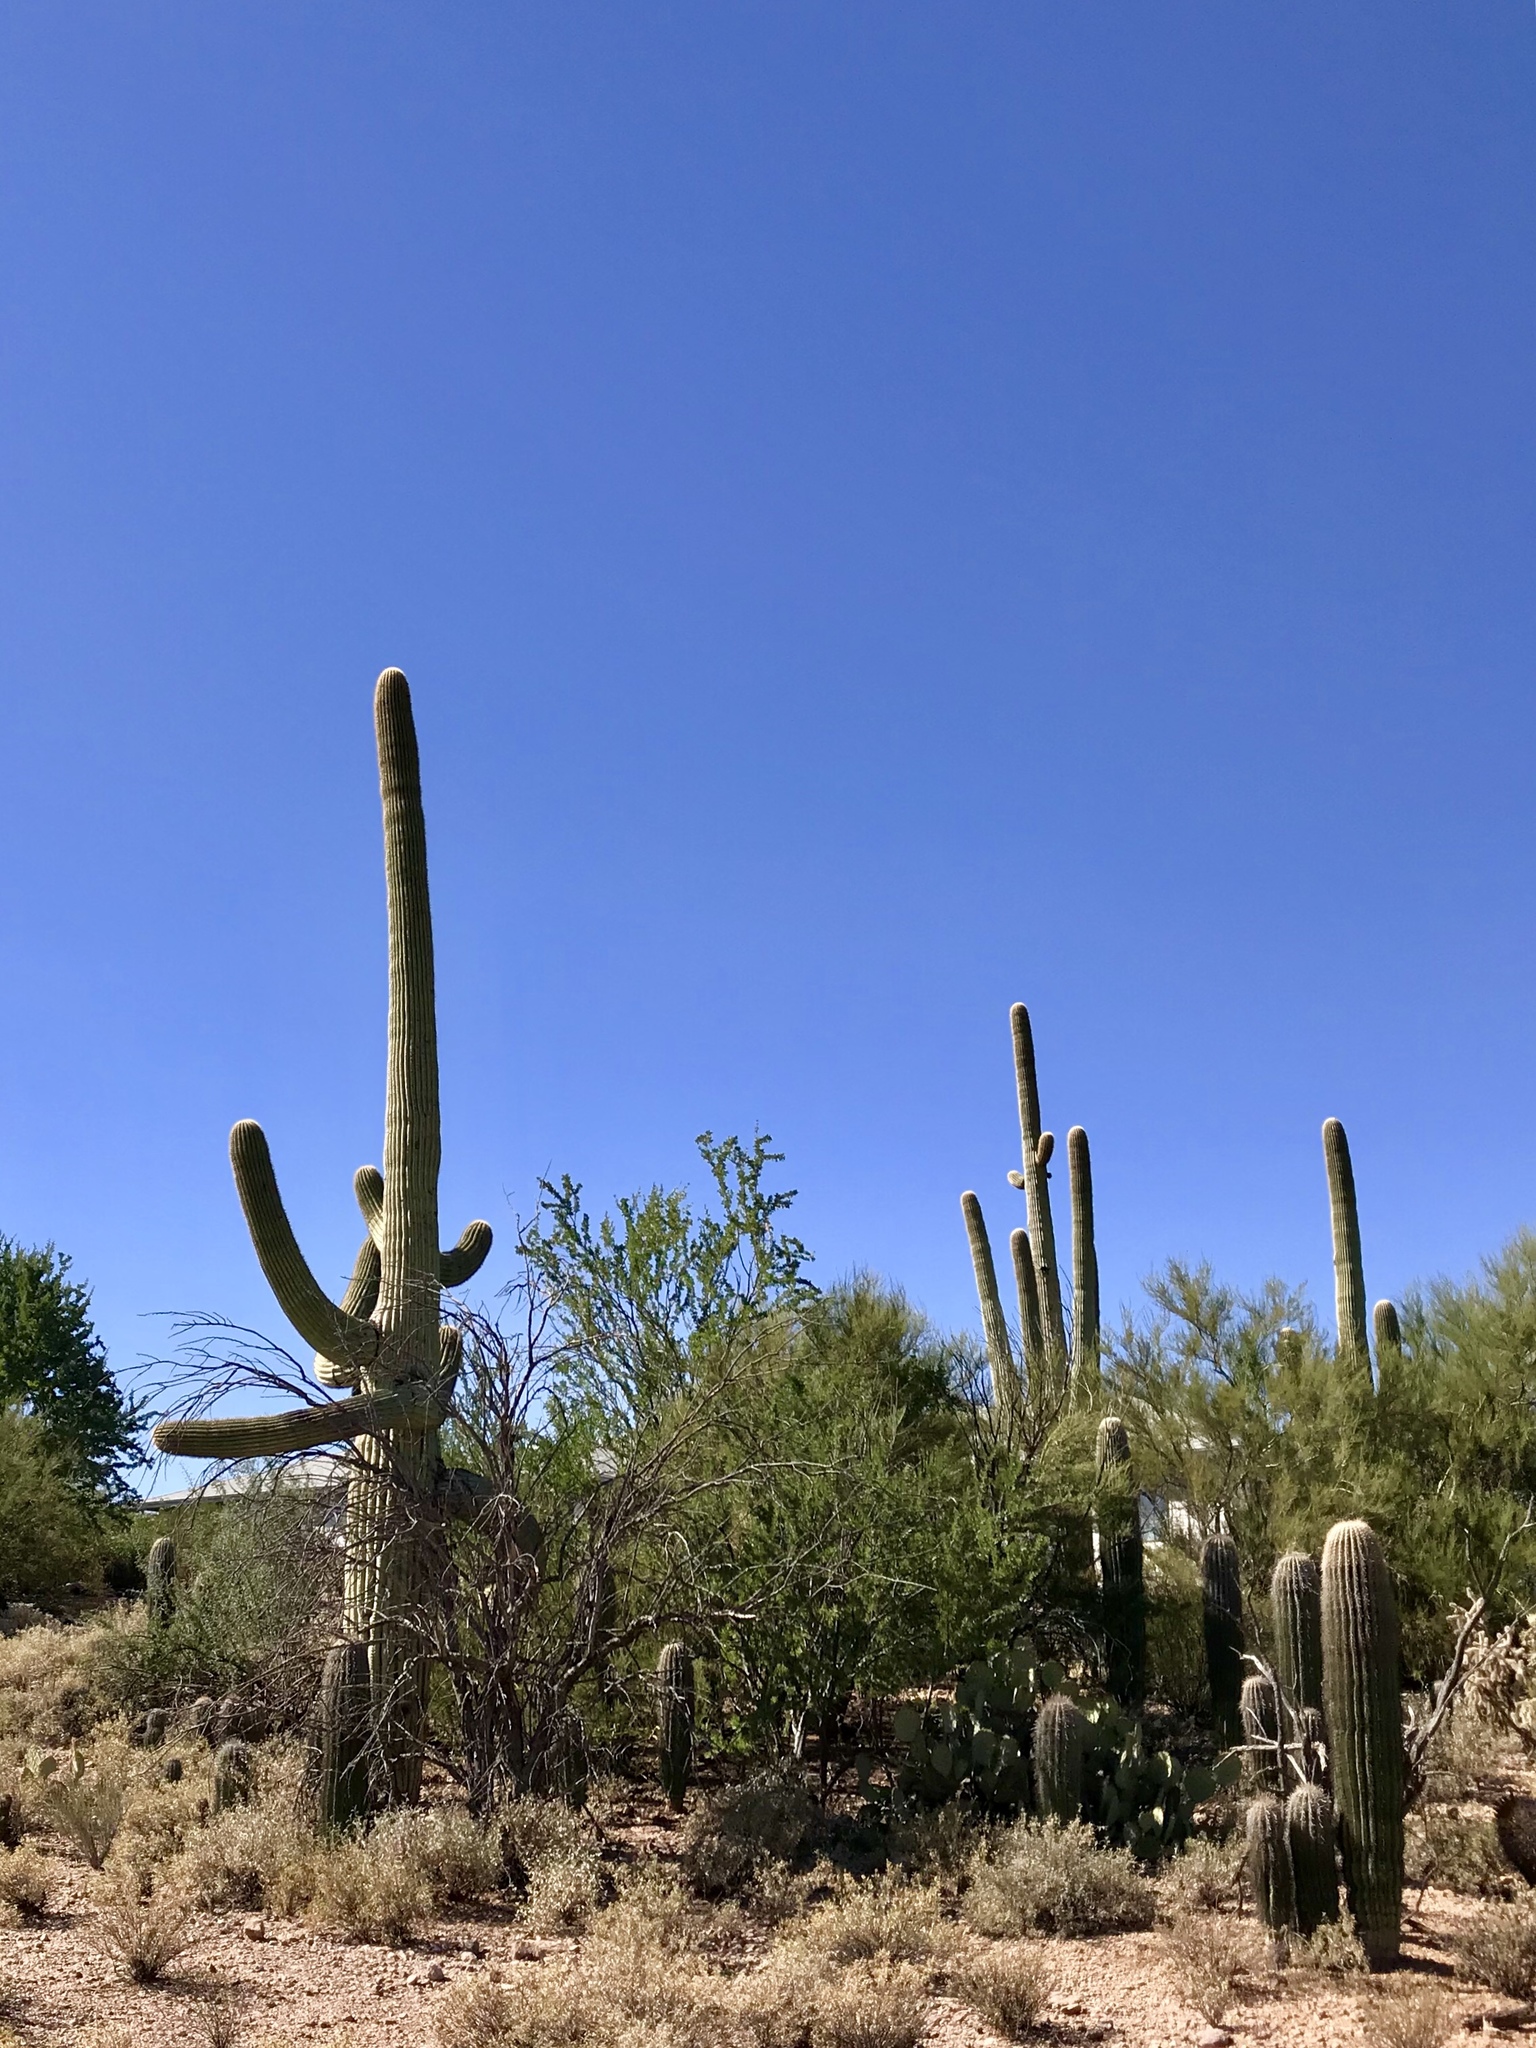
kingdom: Plantae
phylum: Tracheophyta
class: Magnoliopsida
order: Caryophyllales
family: Cactaceae
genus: Carnegiea
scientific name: Carnegiea gigantea
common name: Saguaro
